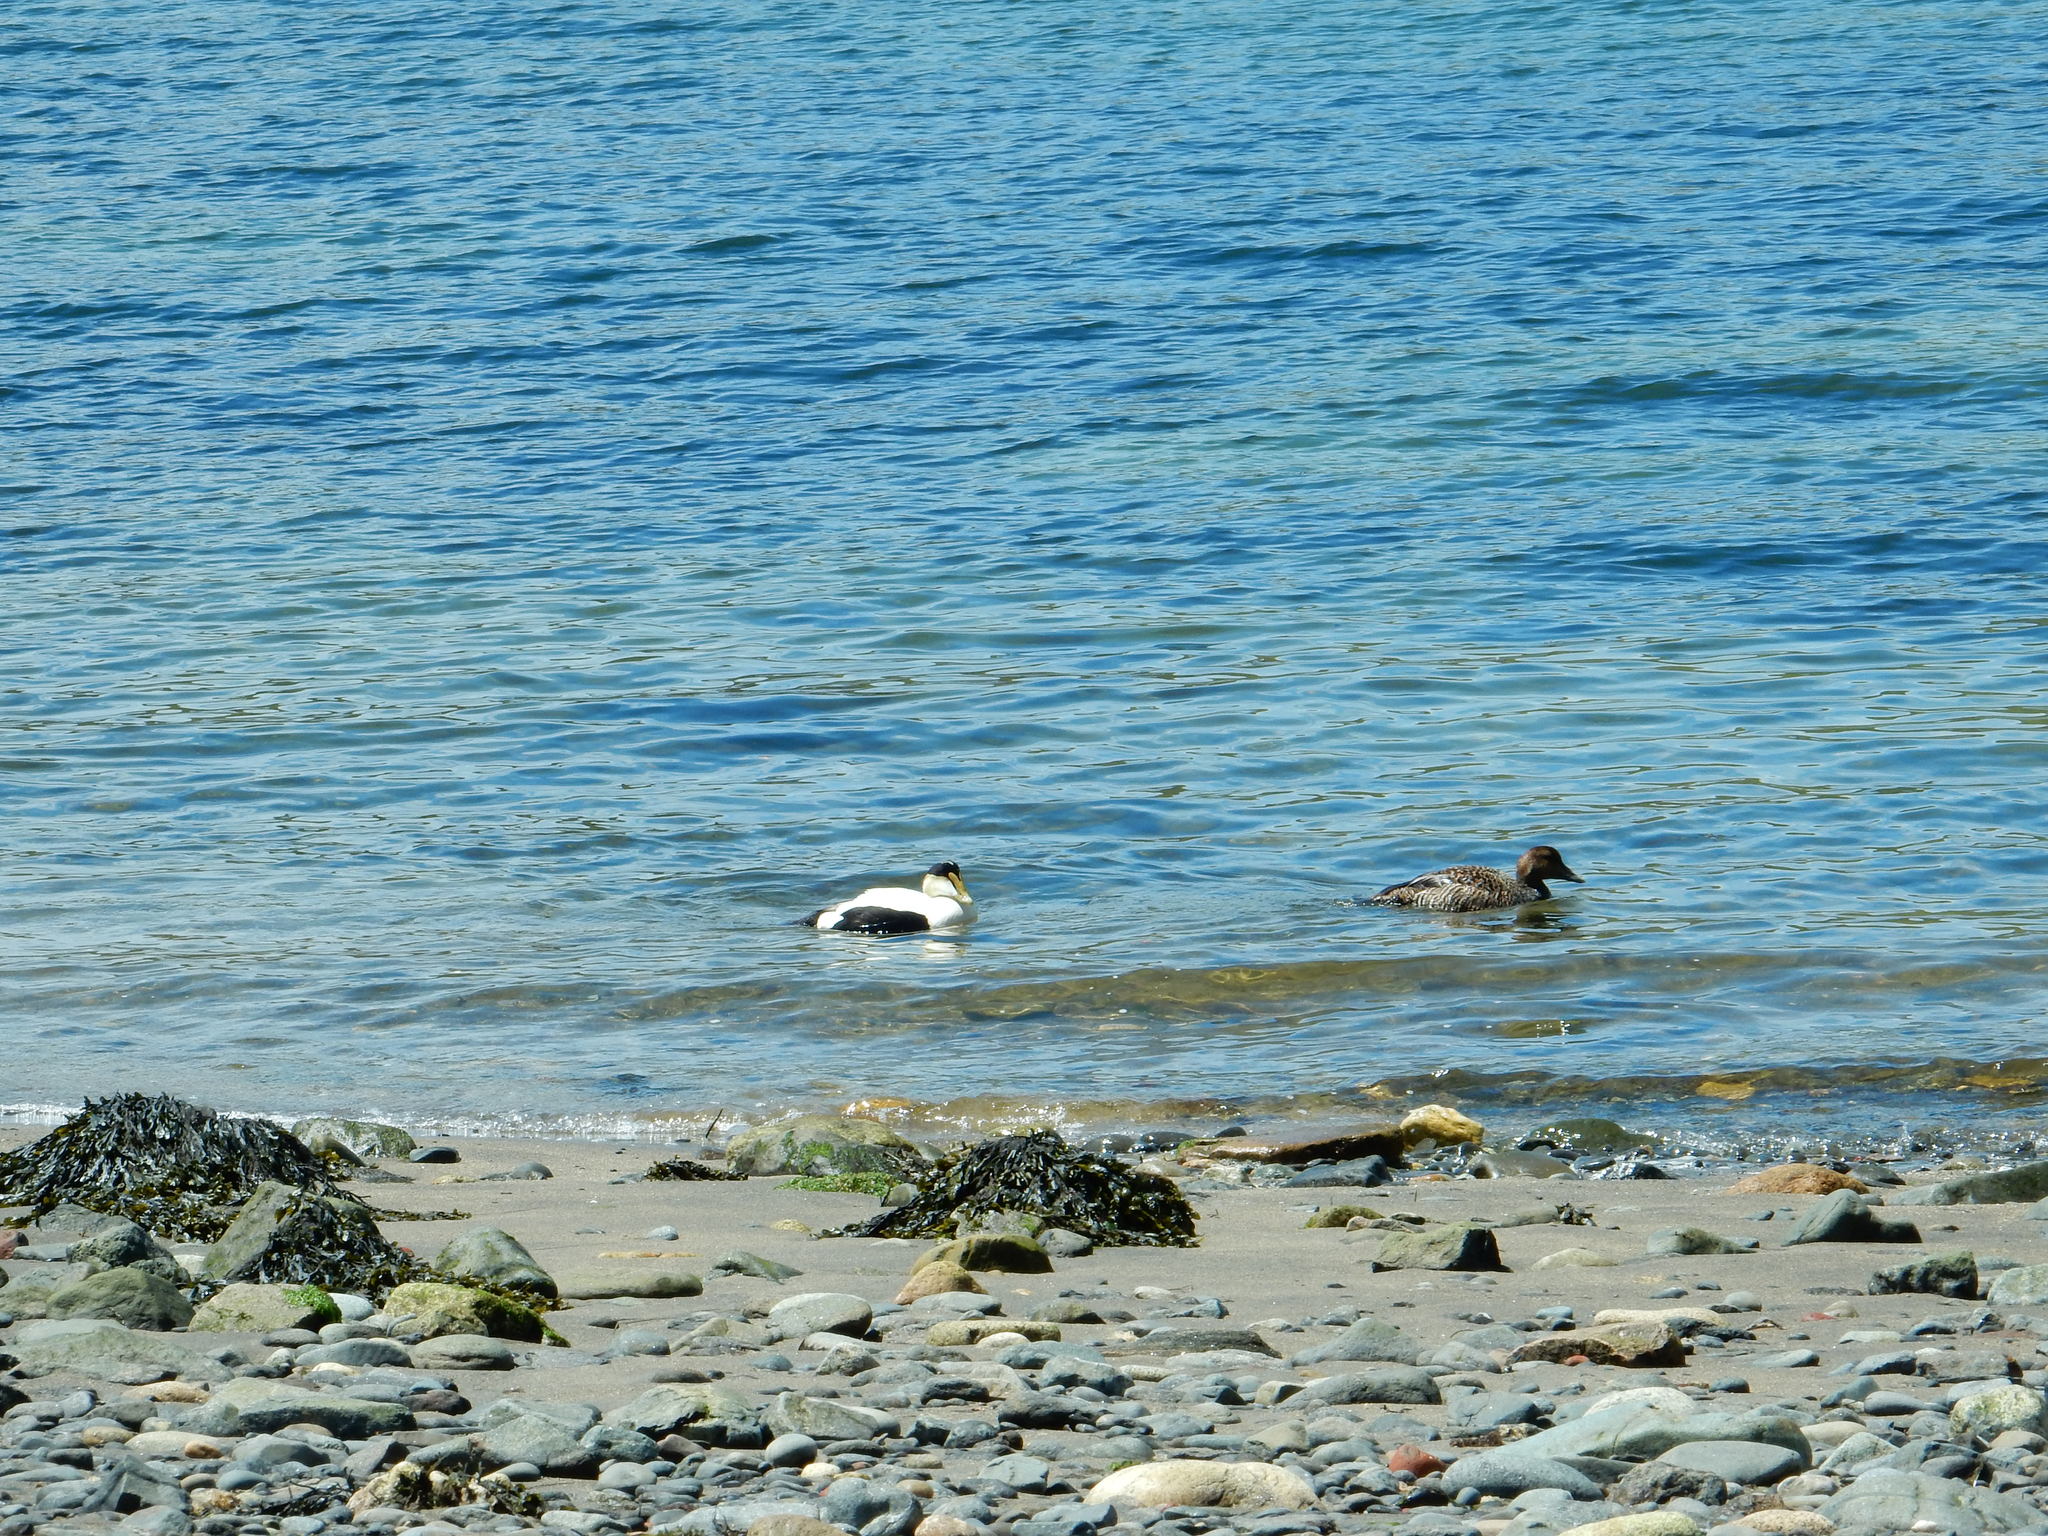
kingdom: Animalia
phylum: Chordata
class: Aves
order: Anseriformes
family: Anatidae
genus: Somateria
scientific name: Somateria mollissima
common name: Common eider
